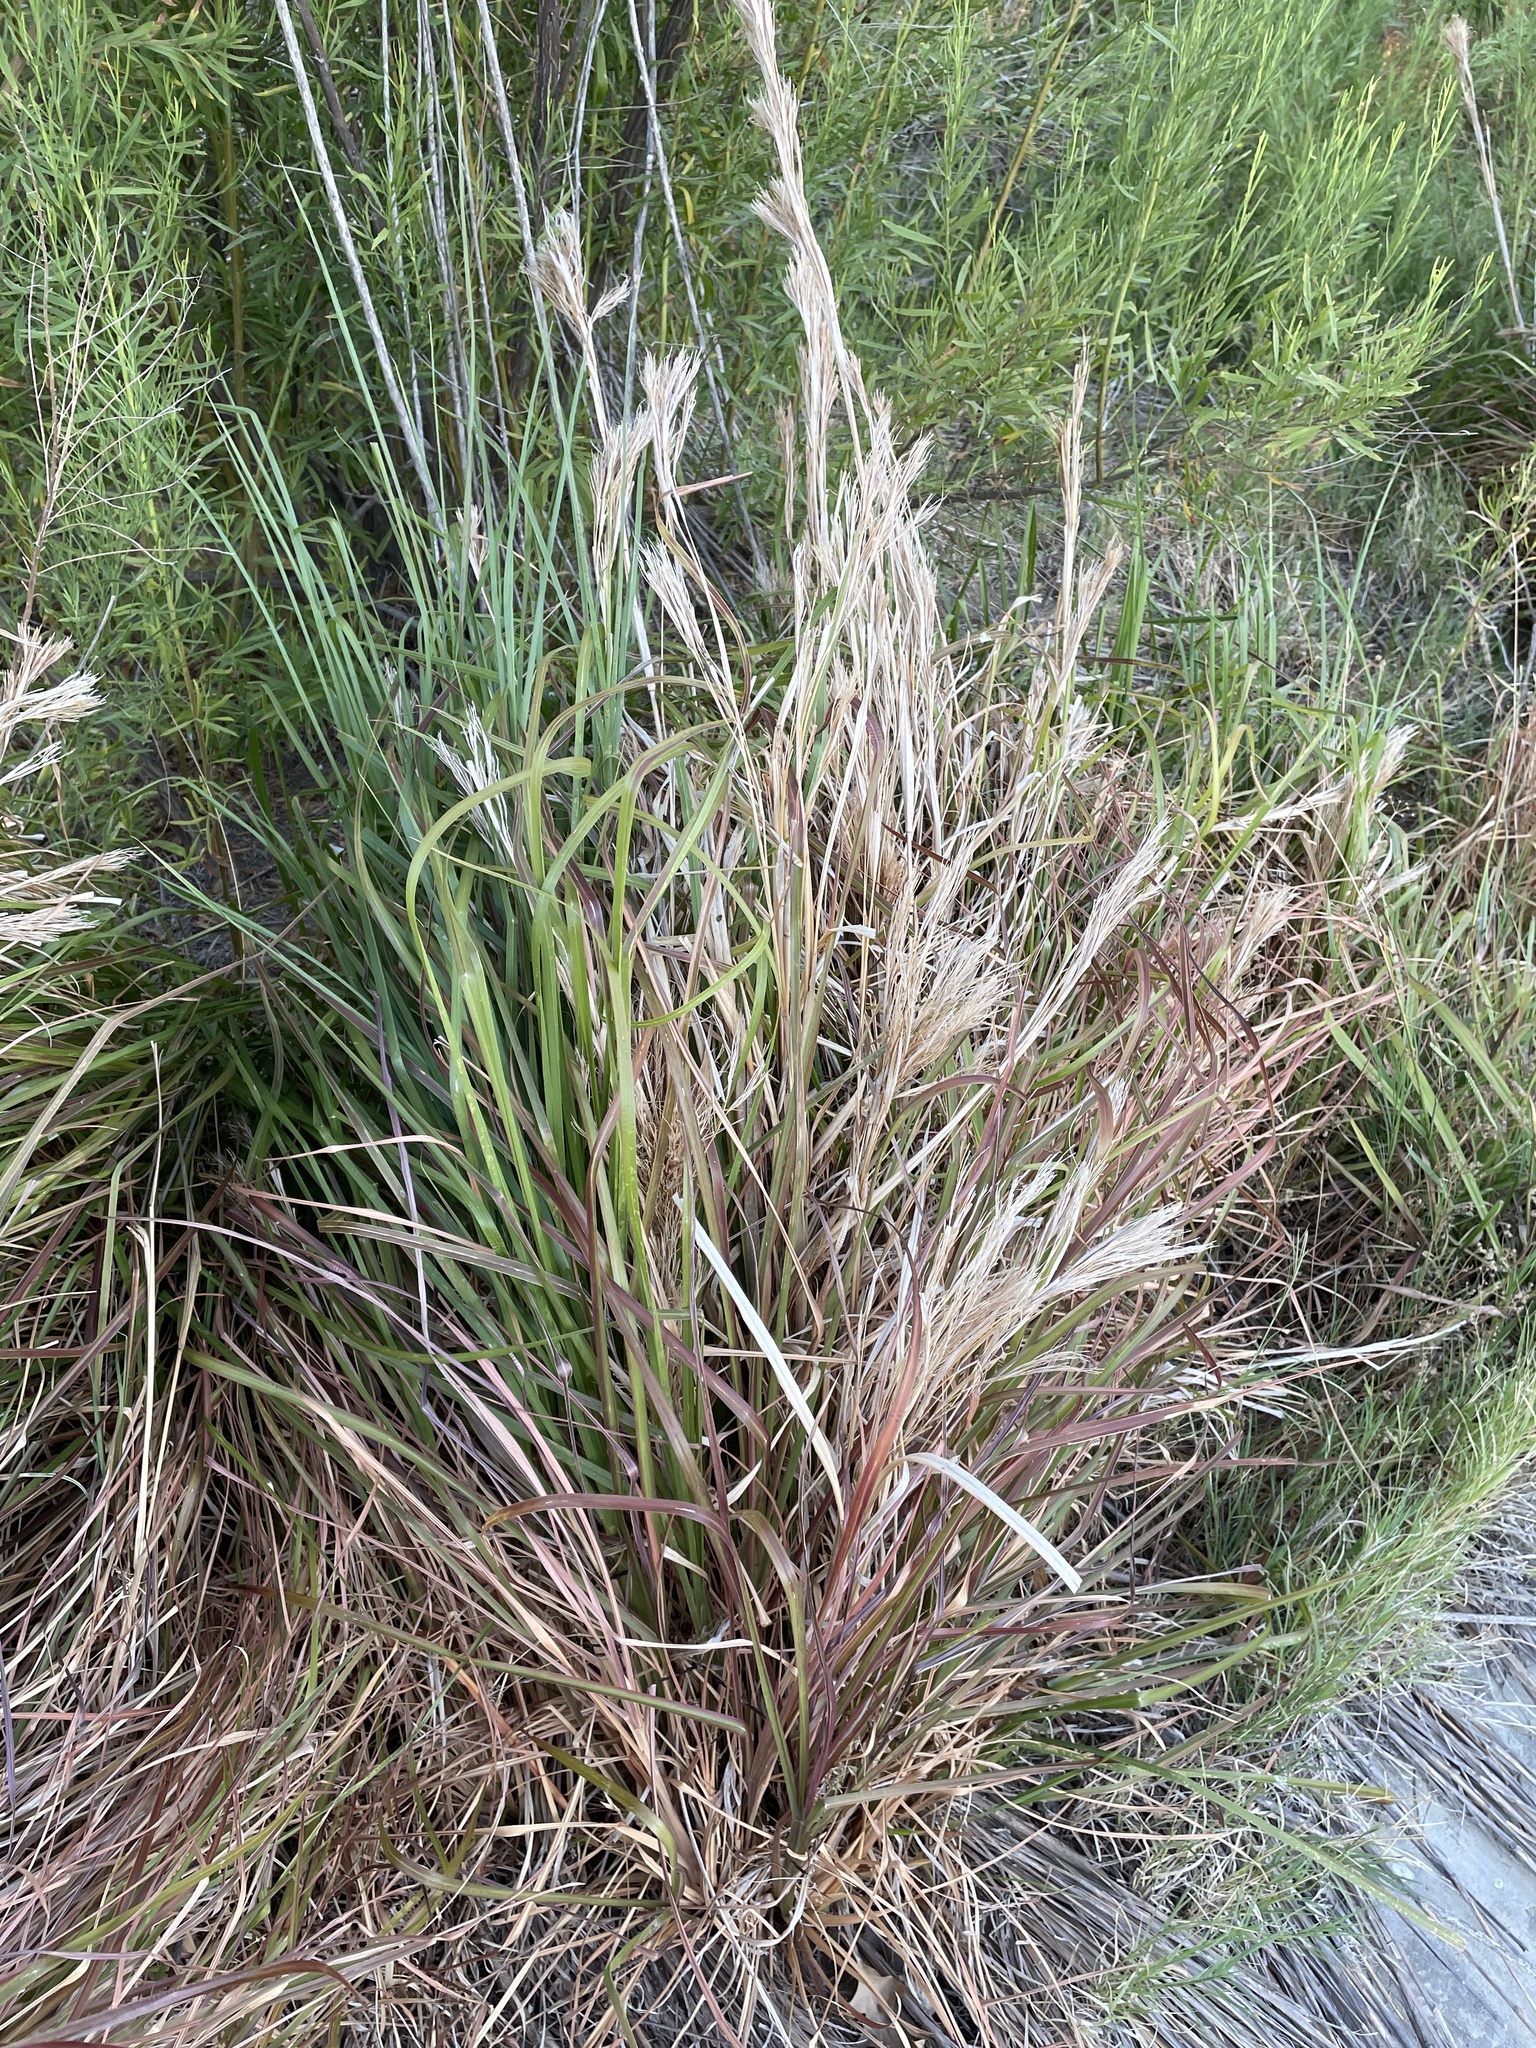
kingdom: Plantae
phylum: Tracheophyta
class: Liliopsida
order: Poales
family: Poaceae
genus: Andropogon
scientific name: Andropogon tenuispatheus
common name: Bushy bluestem
